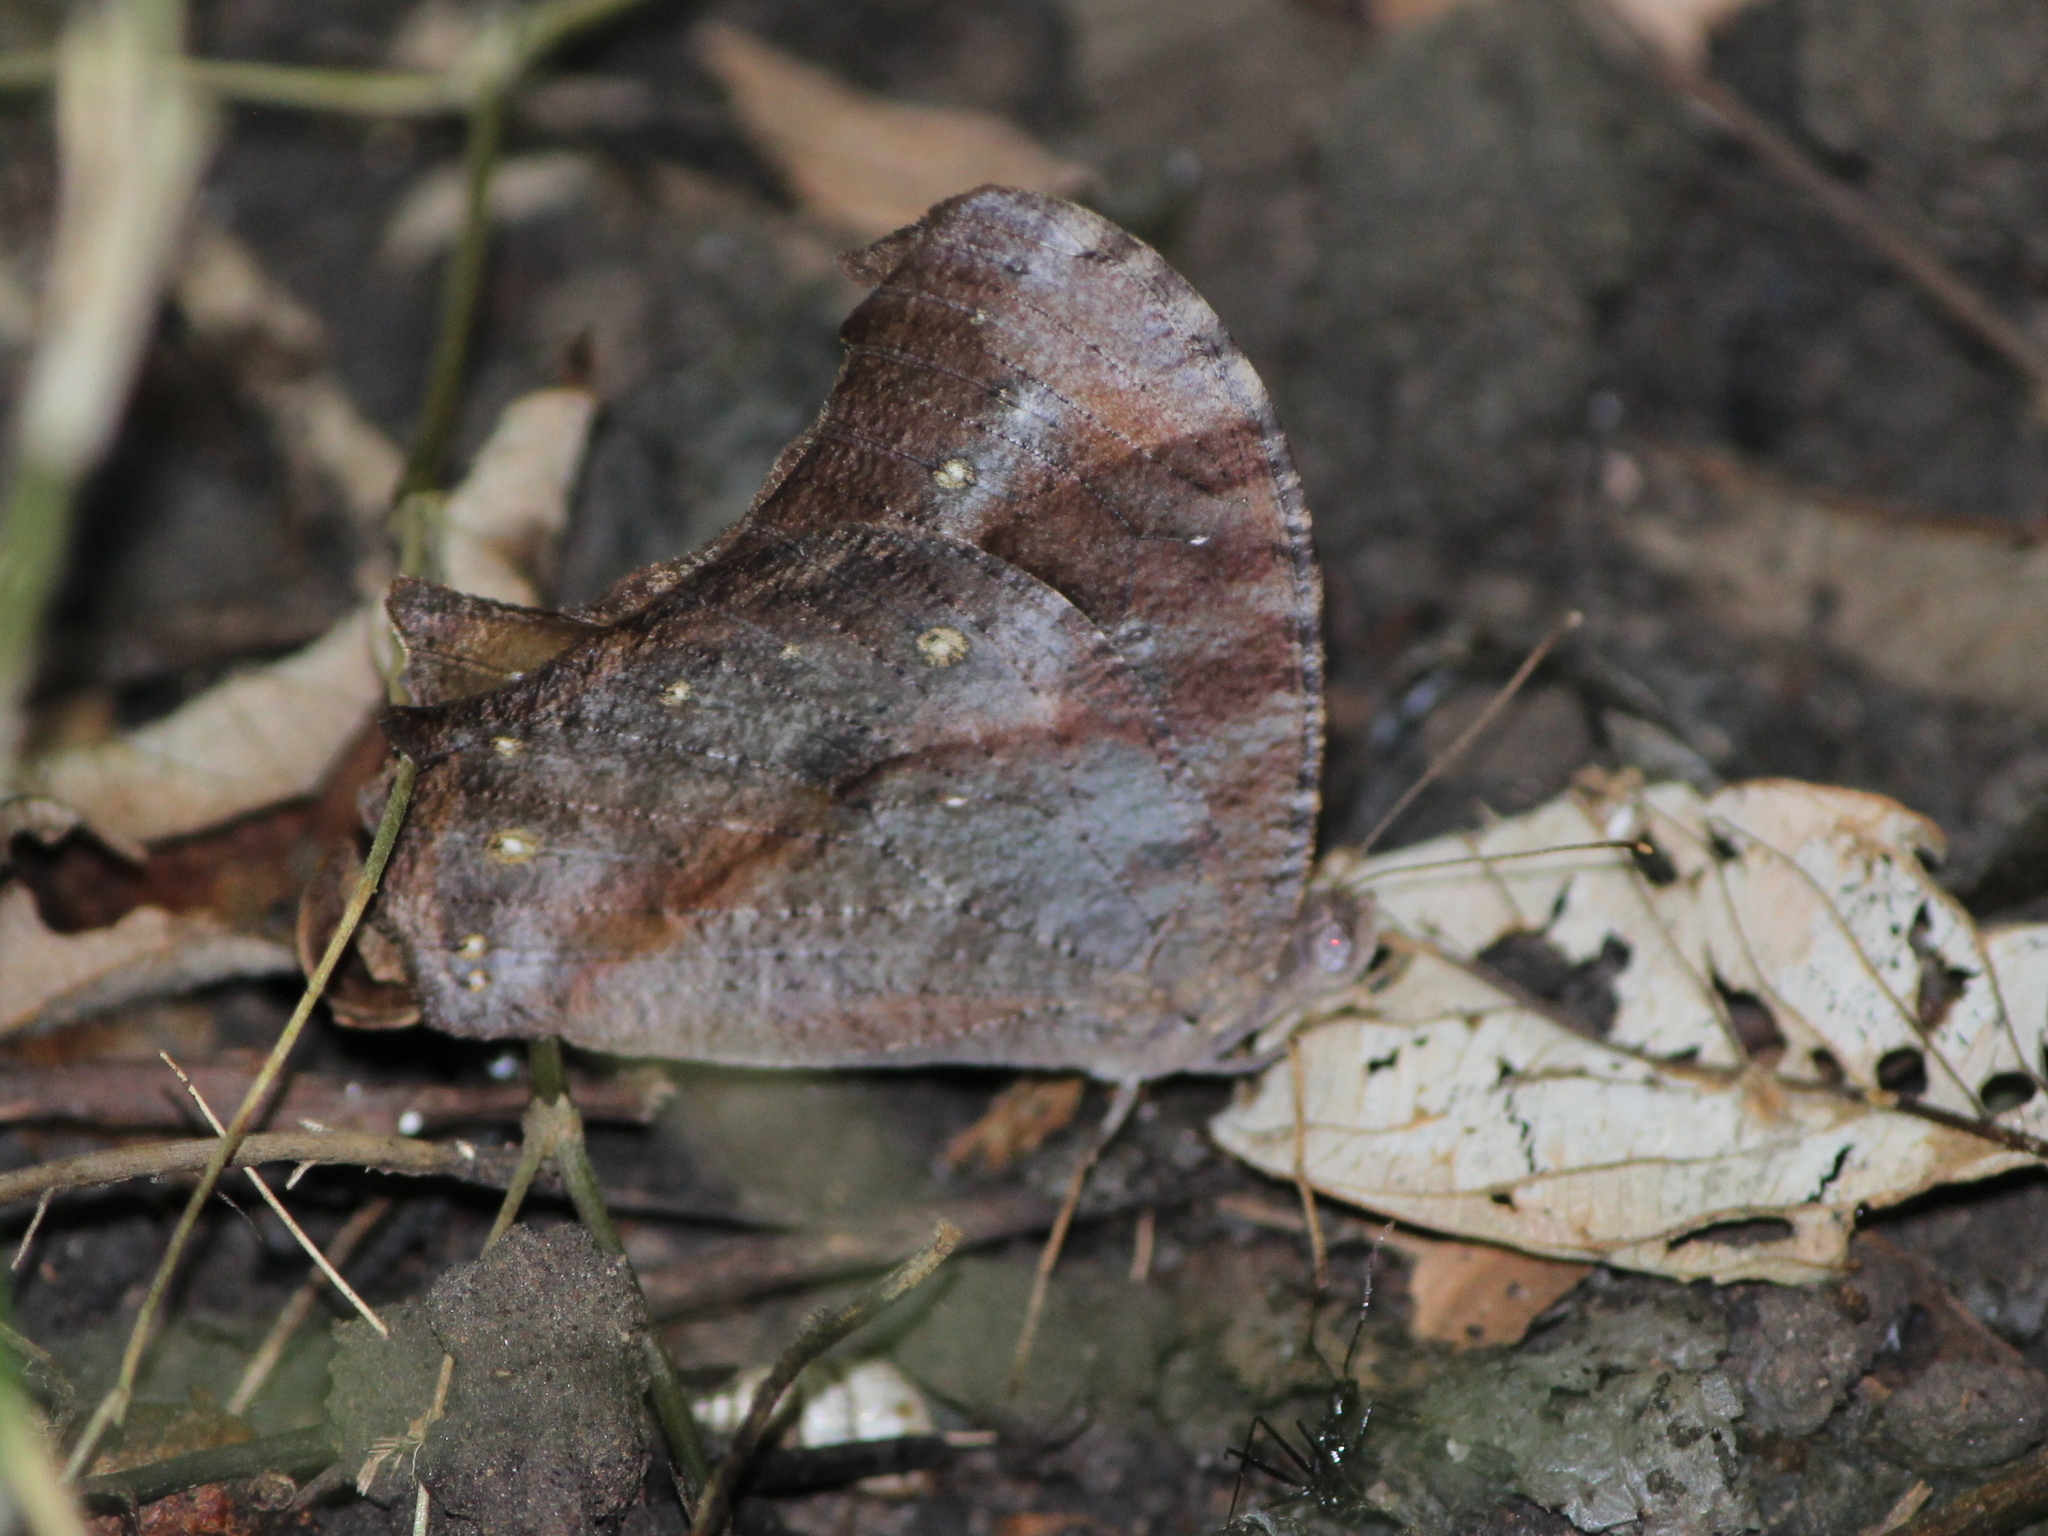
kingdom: Animalia
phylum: Arthropoda
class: Insecta
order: Lepidoptera
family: Nymphalidae
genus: Melanitis
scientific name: Melanitis leda
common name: Twilight brown
